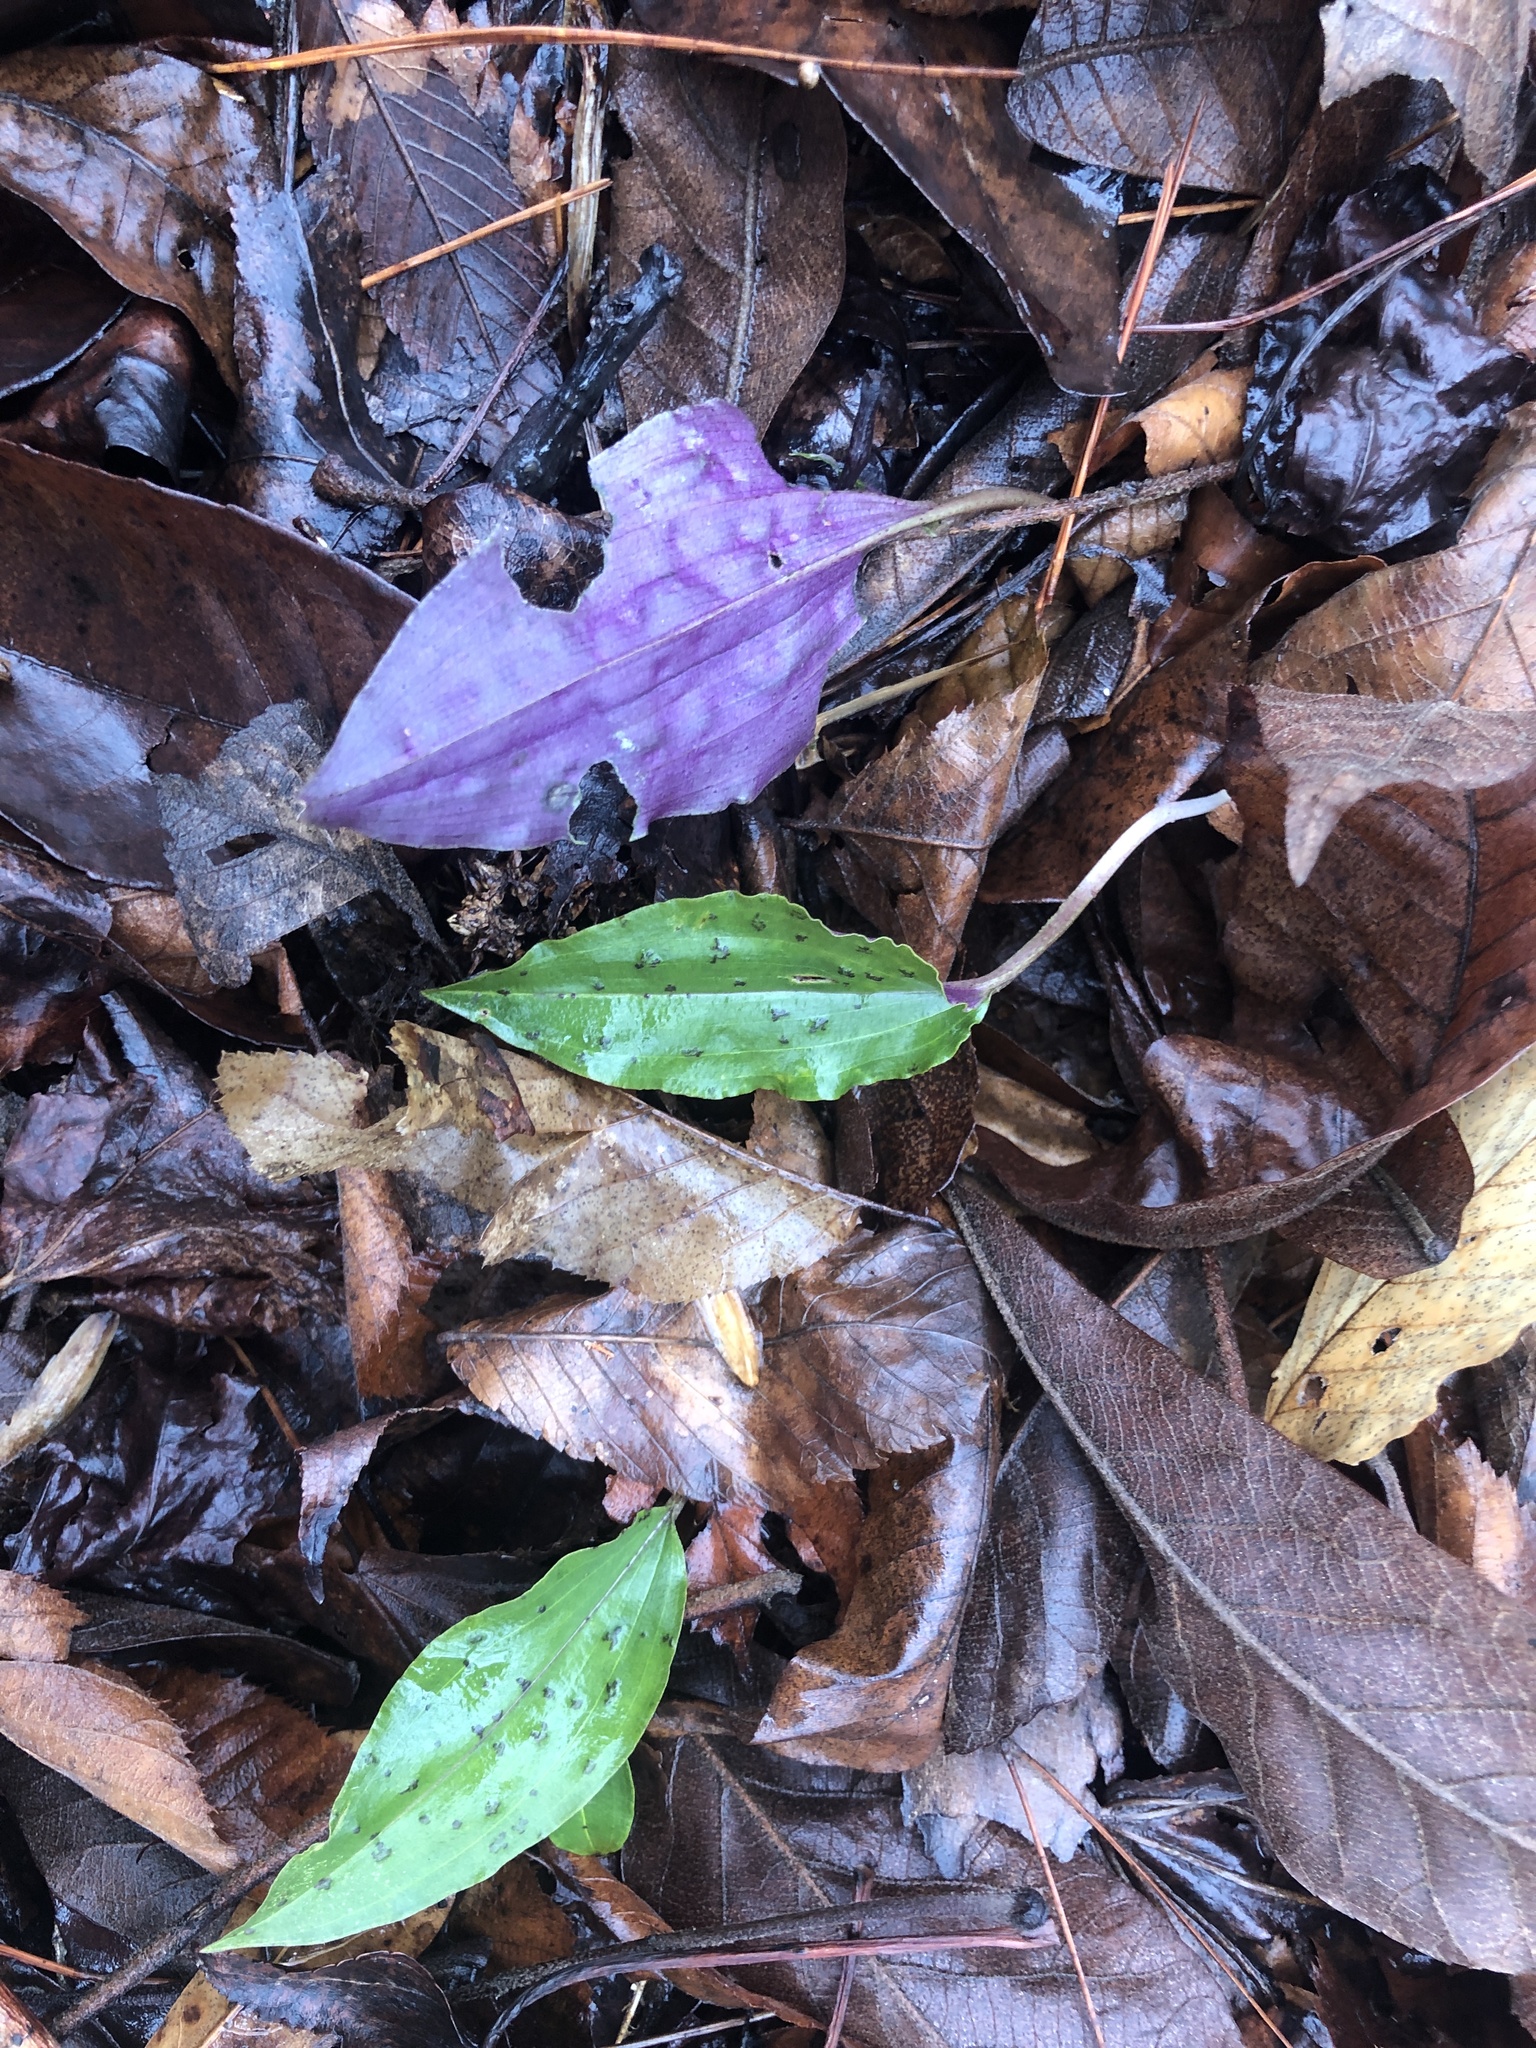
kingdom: Plantae
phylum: Tracheophyta
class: Liliopsida
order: Asparagales
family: Orchidaceae
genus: Tipularia
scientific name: Tipularia discolor
